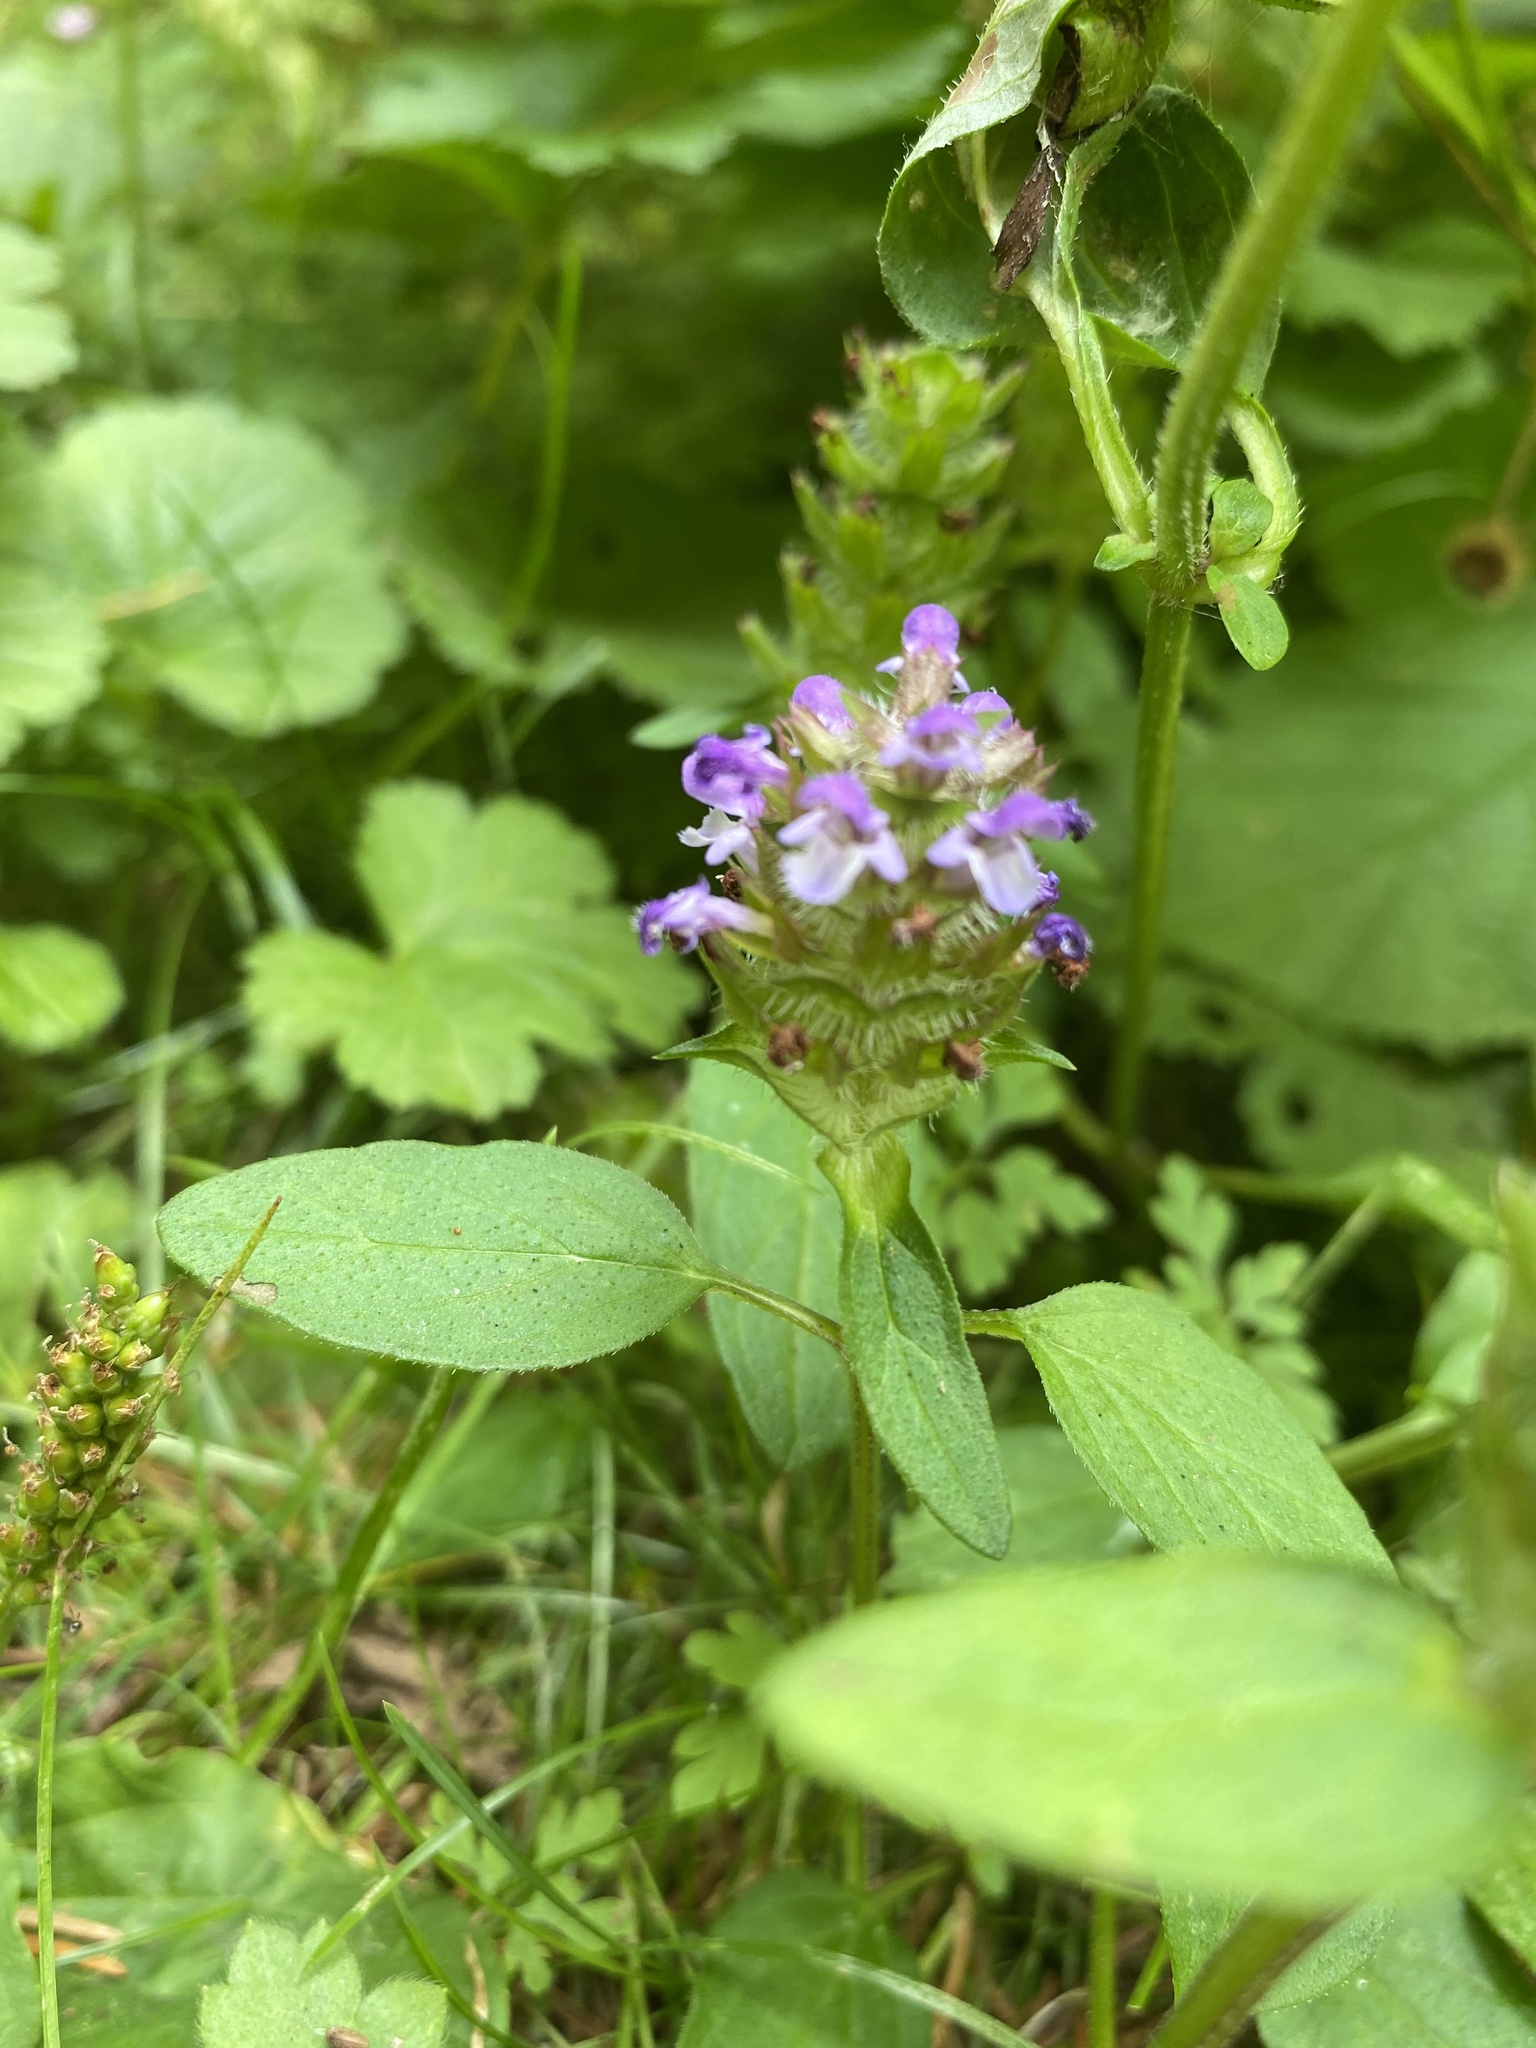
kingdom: Plantae
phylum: Tracheophyta
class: Magnoliopsida
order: Lamiales
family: Lamiaceae
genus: Prunella
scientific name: Prunella vulgaris
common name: Heal-all
